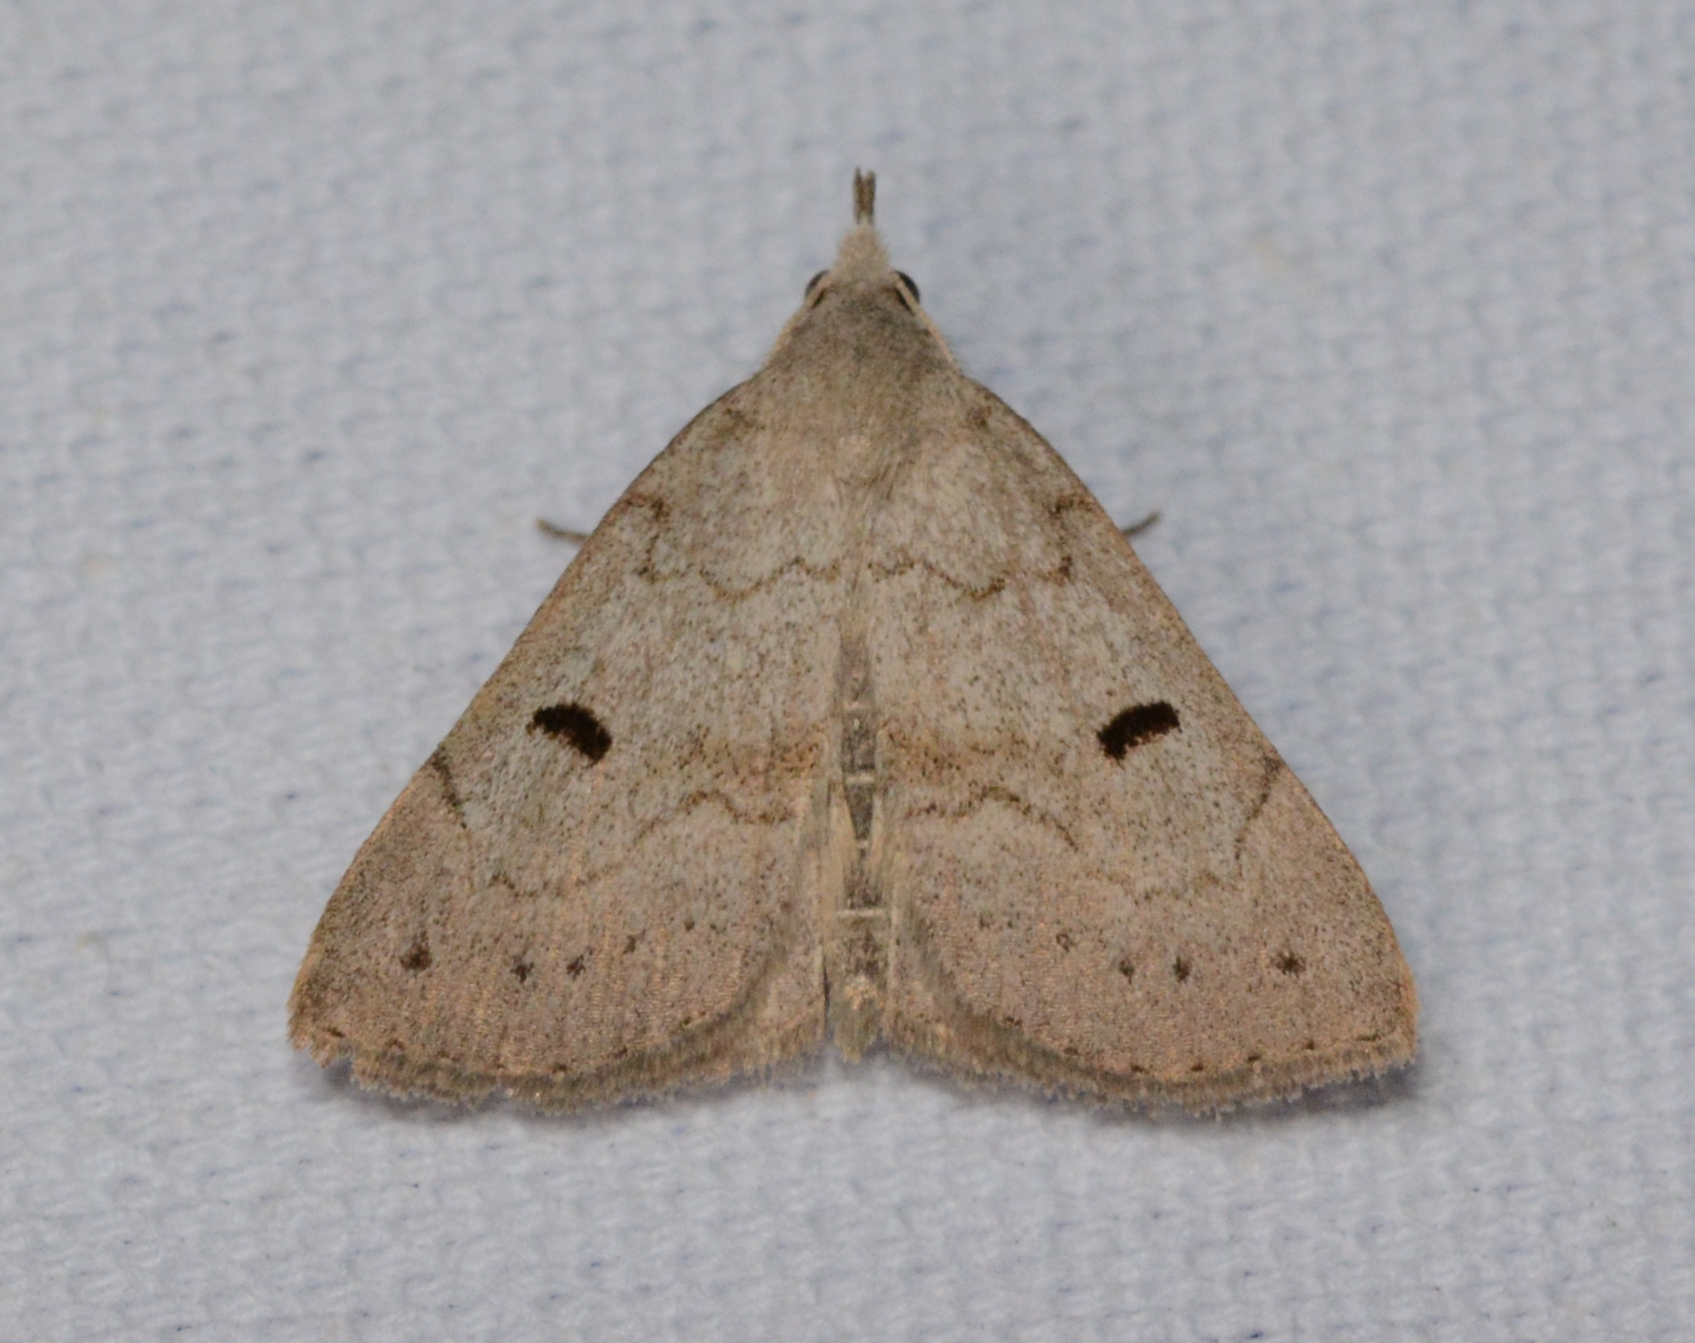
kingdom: Animalia
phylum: Arthropoda
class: Insecta
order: Lepidoptera
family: Erebidae
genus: Macrochilo
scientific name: Macrochilo morbidalis
